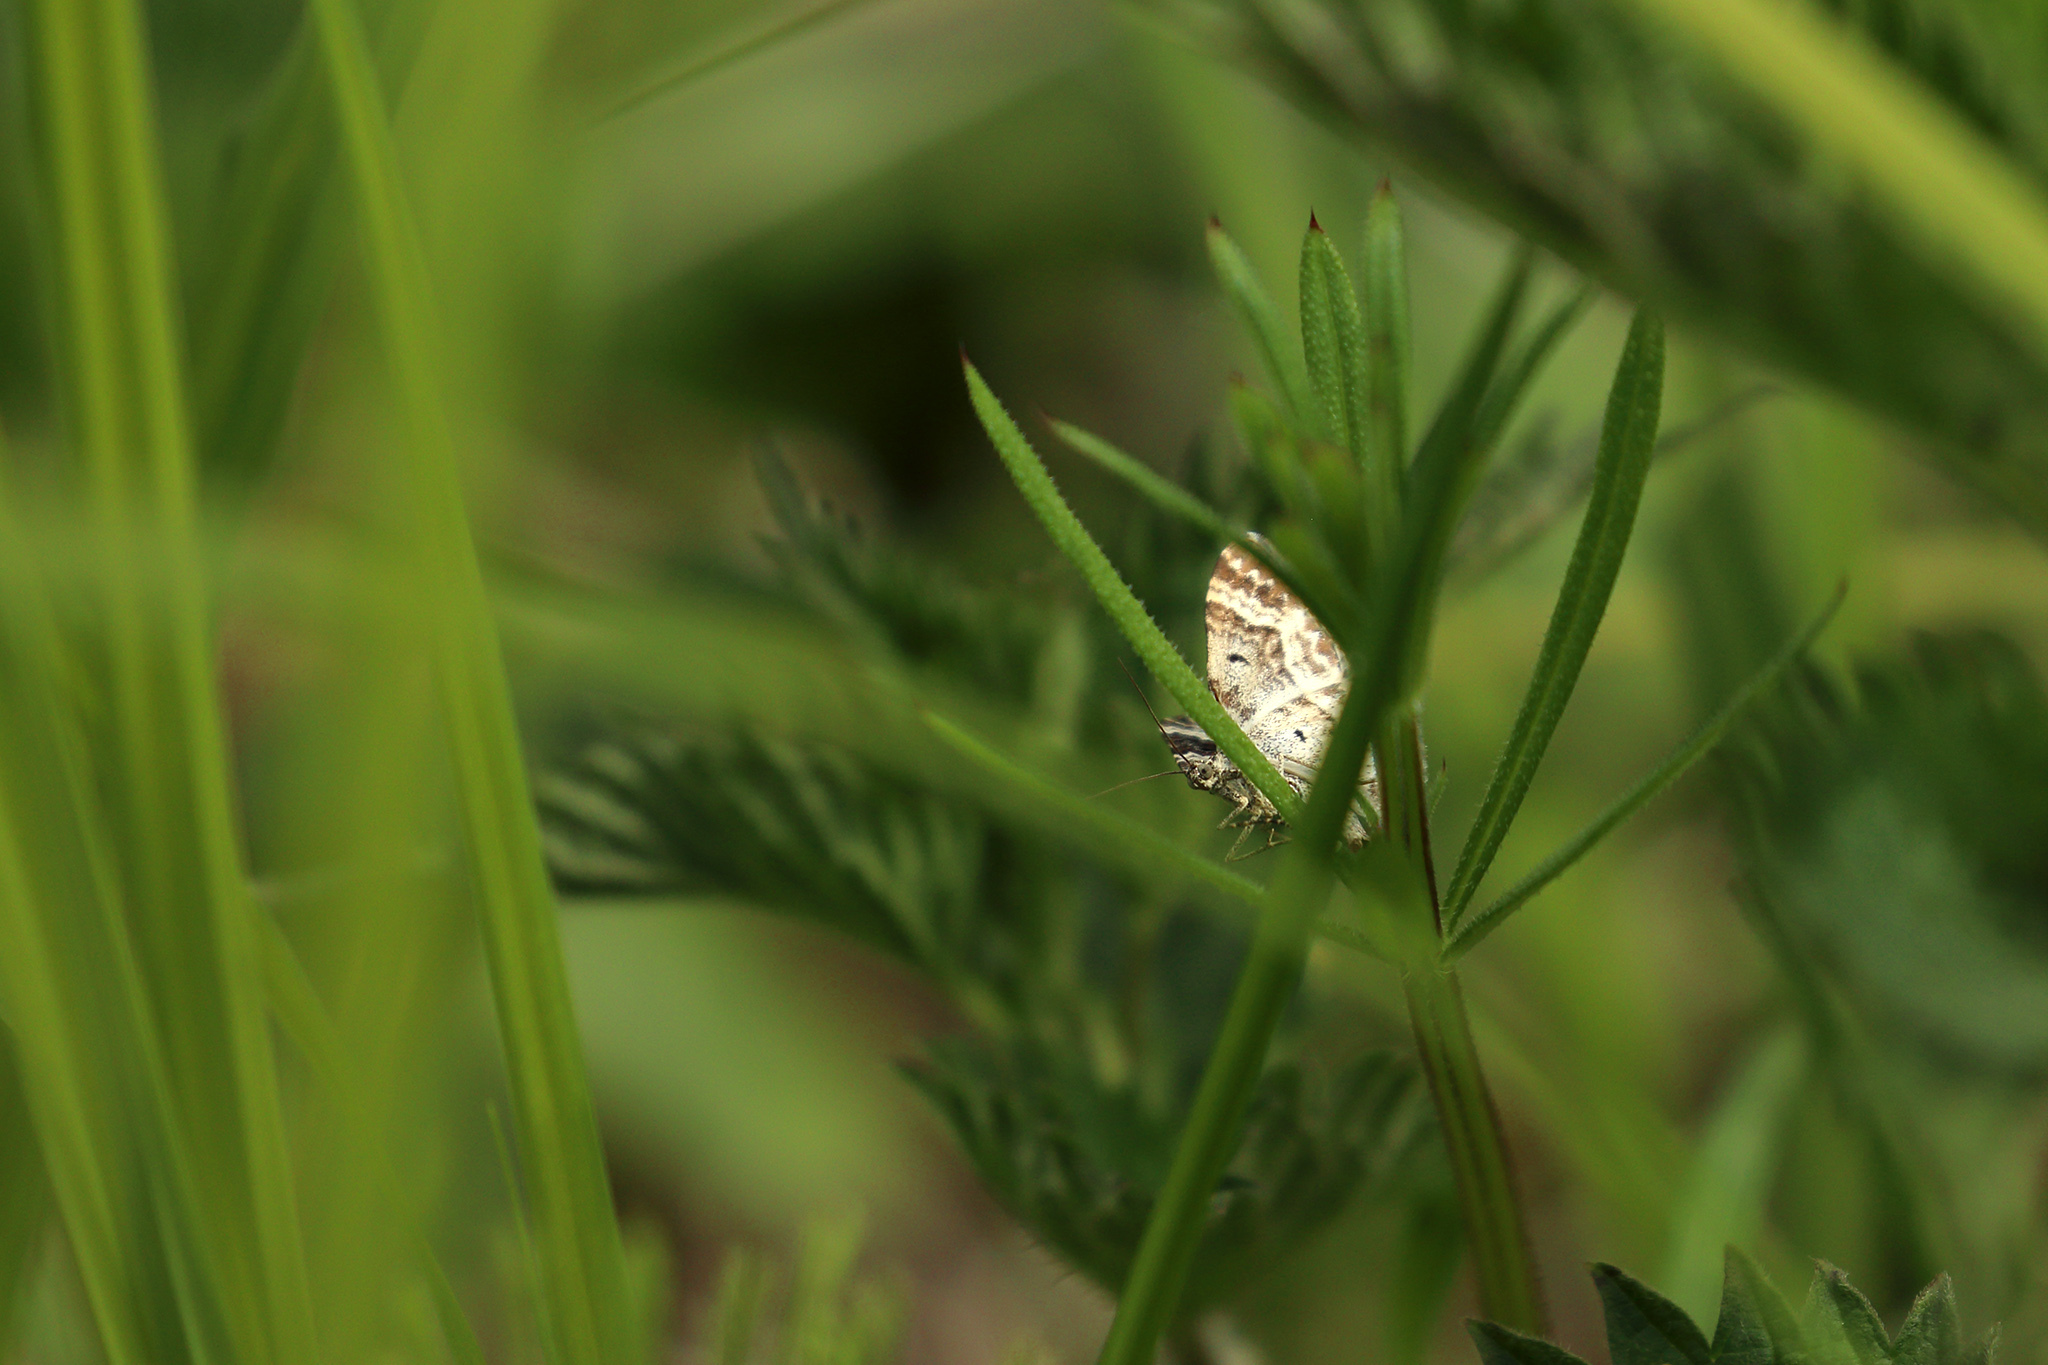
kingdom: Animalia
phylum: Arthropoda
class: Insecta
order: Lepidoptera
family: Geometridae
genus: Epirrhoe
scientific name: Epirrhoe alternata
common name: Common carpet
